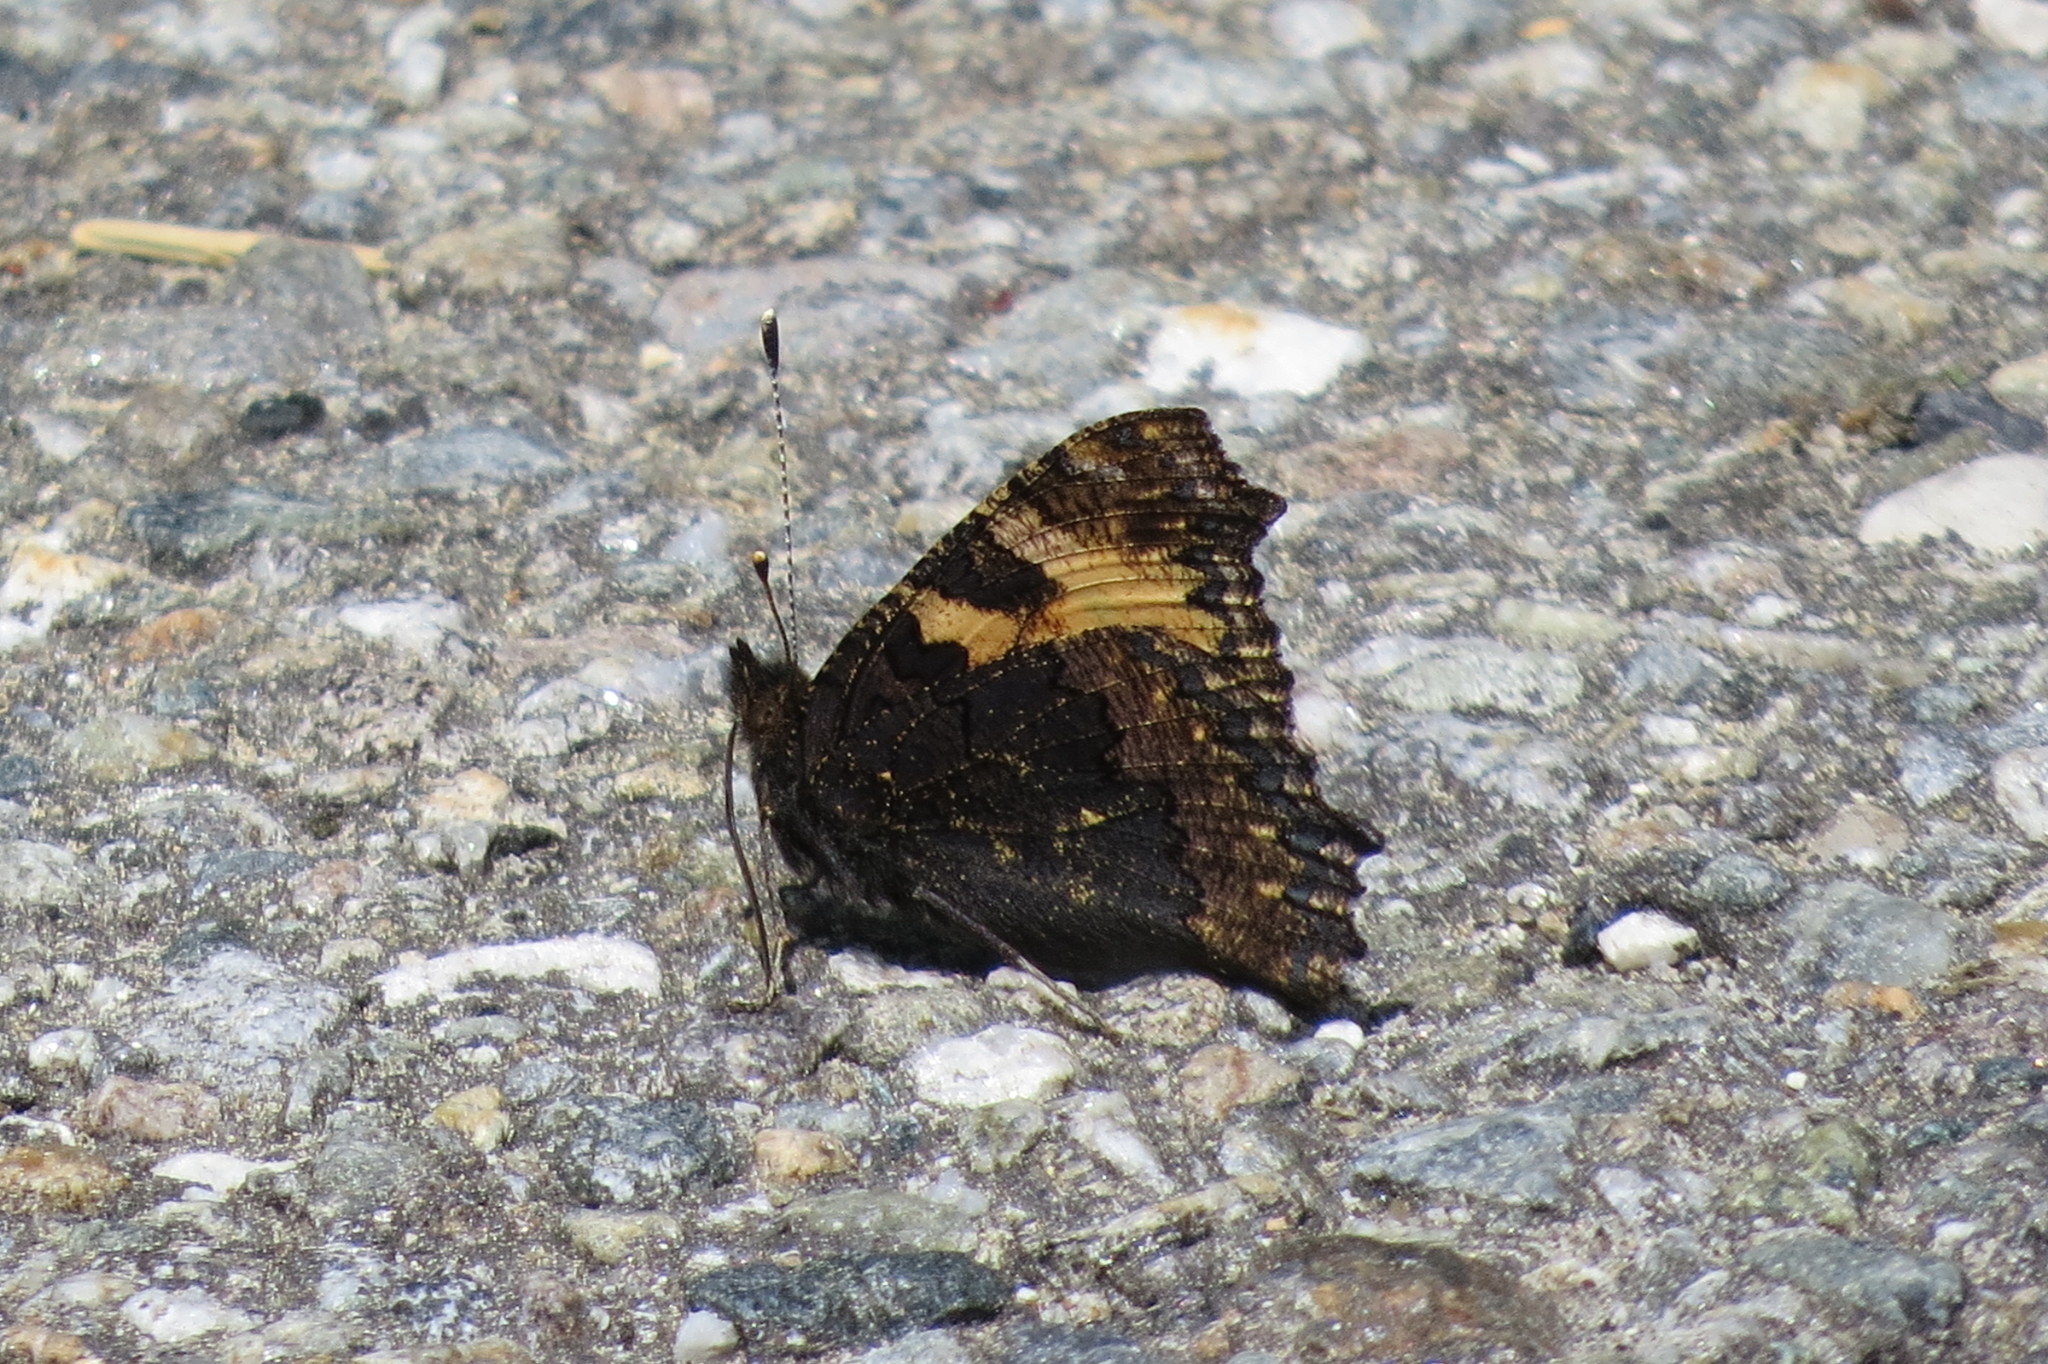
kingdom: Animalia
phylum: Arthropoda
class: Insecta
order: Lepidoptera
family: Nymphalidae
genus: Aglais
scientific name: Aglais urticae
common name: Small tortoiseshell
